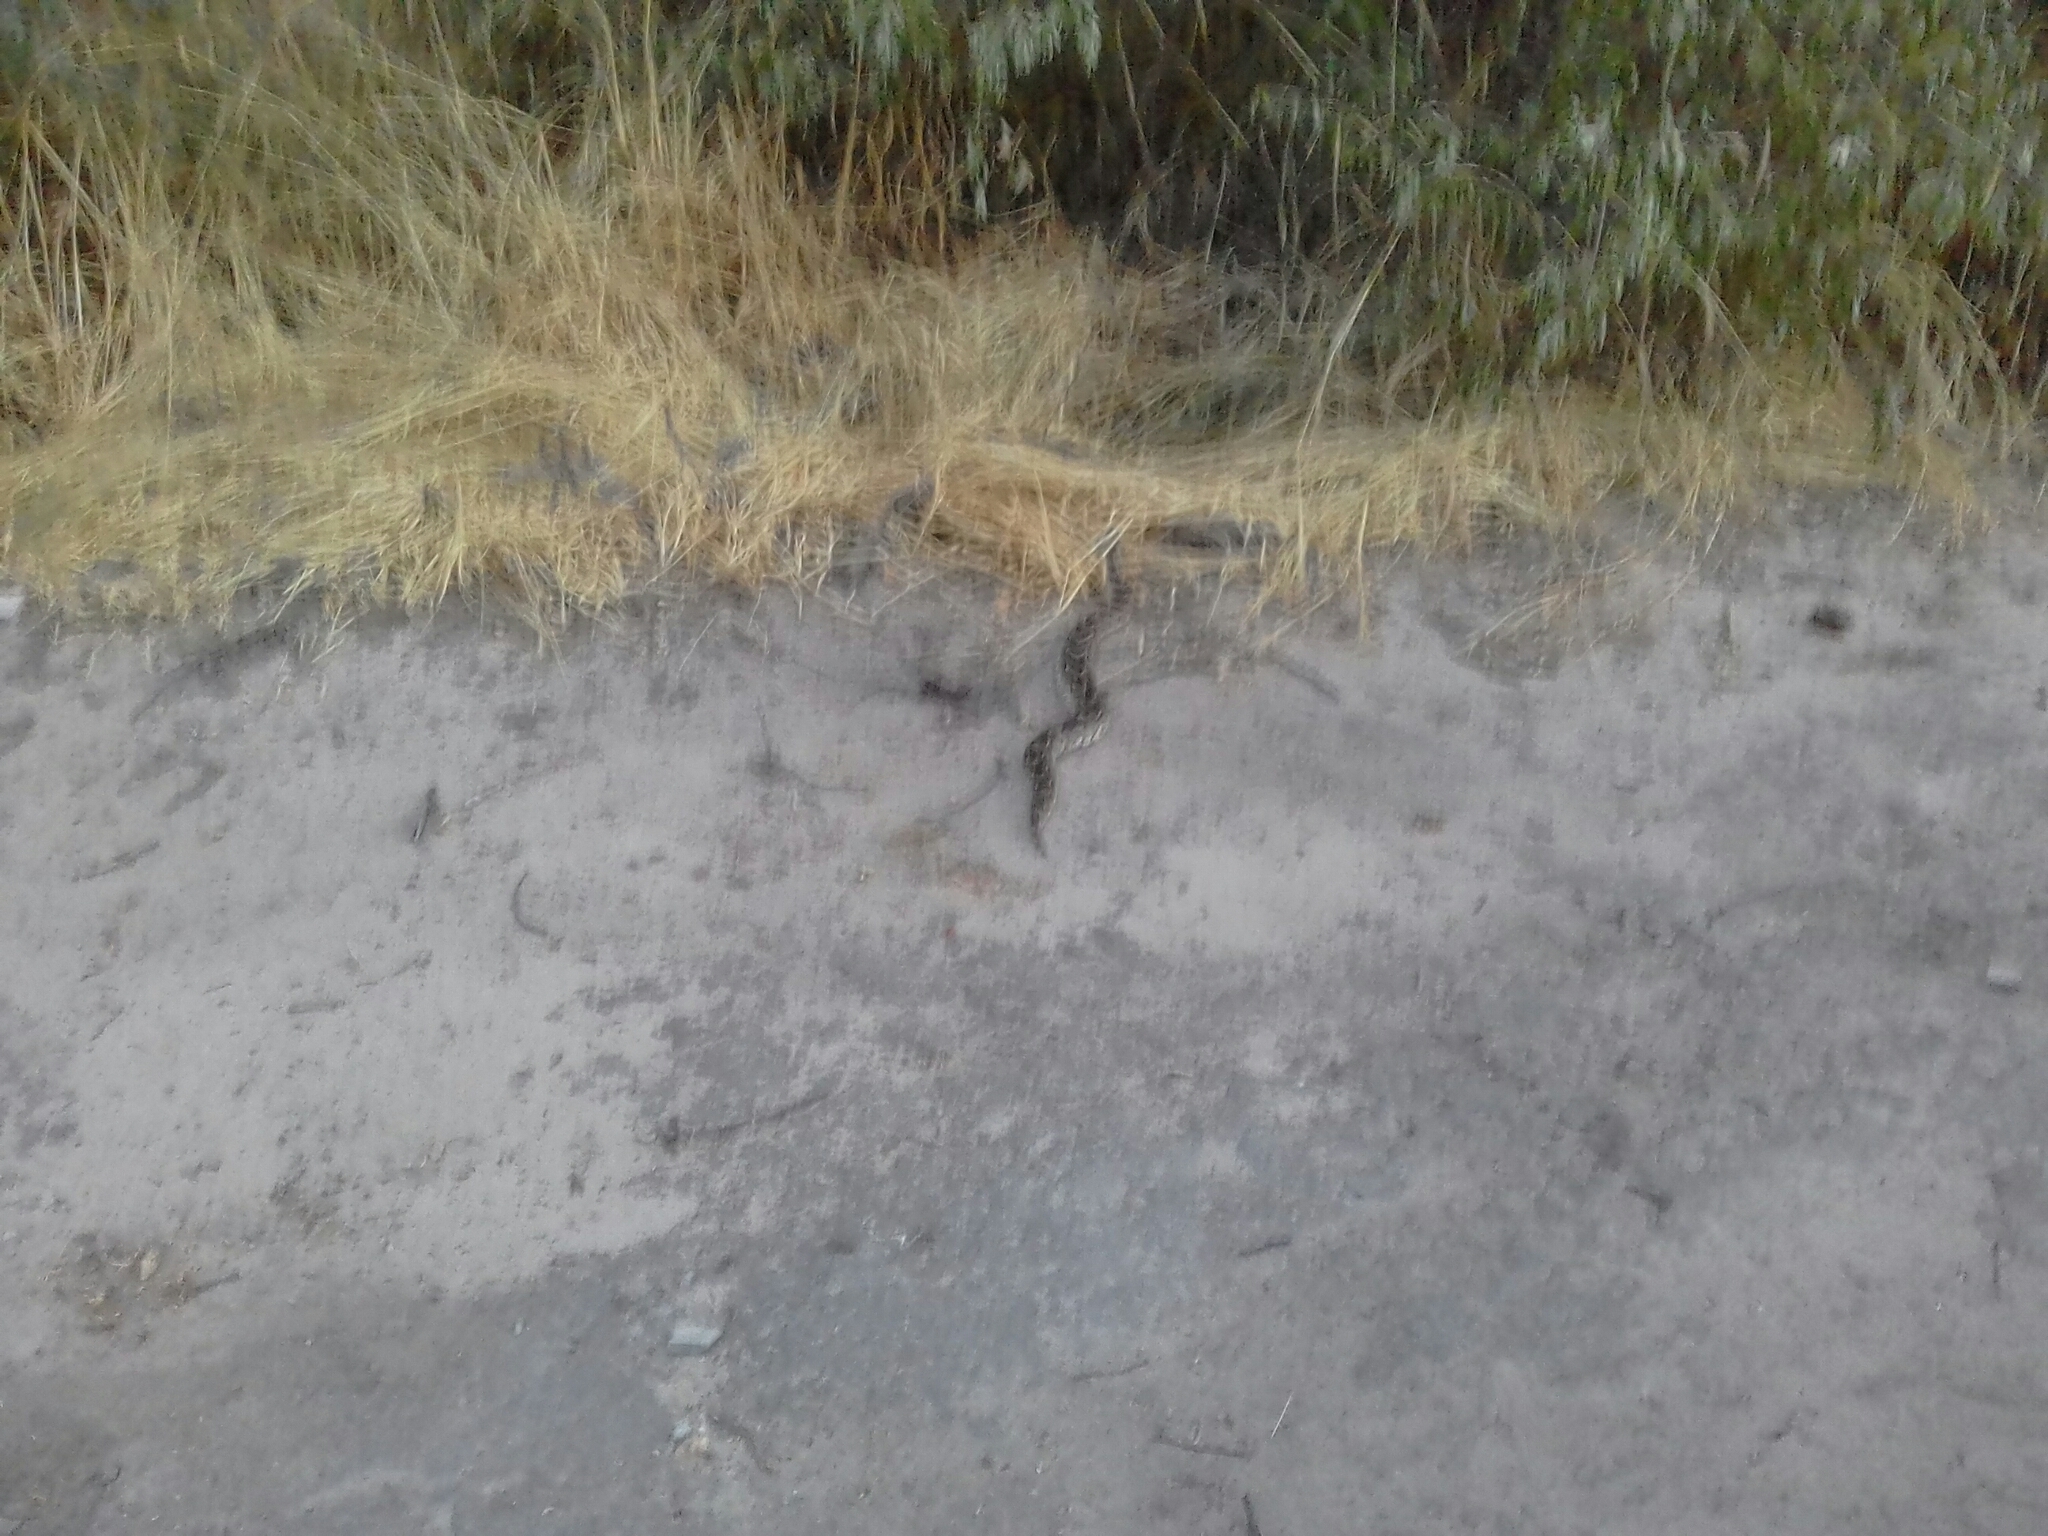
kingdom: Animalia
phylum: Chordata
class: Squamata
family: Viperidae
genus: Bitis
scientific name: Bitis arietans
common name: Puff adder
